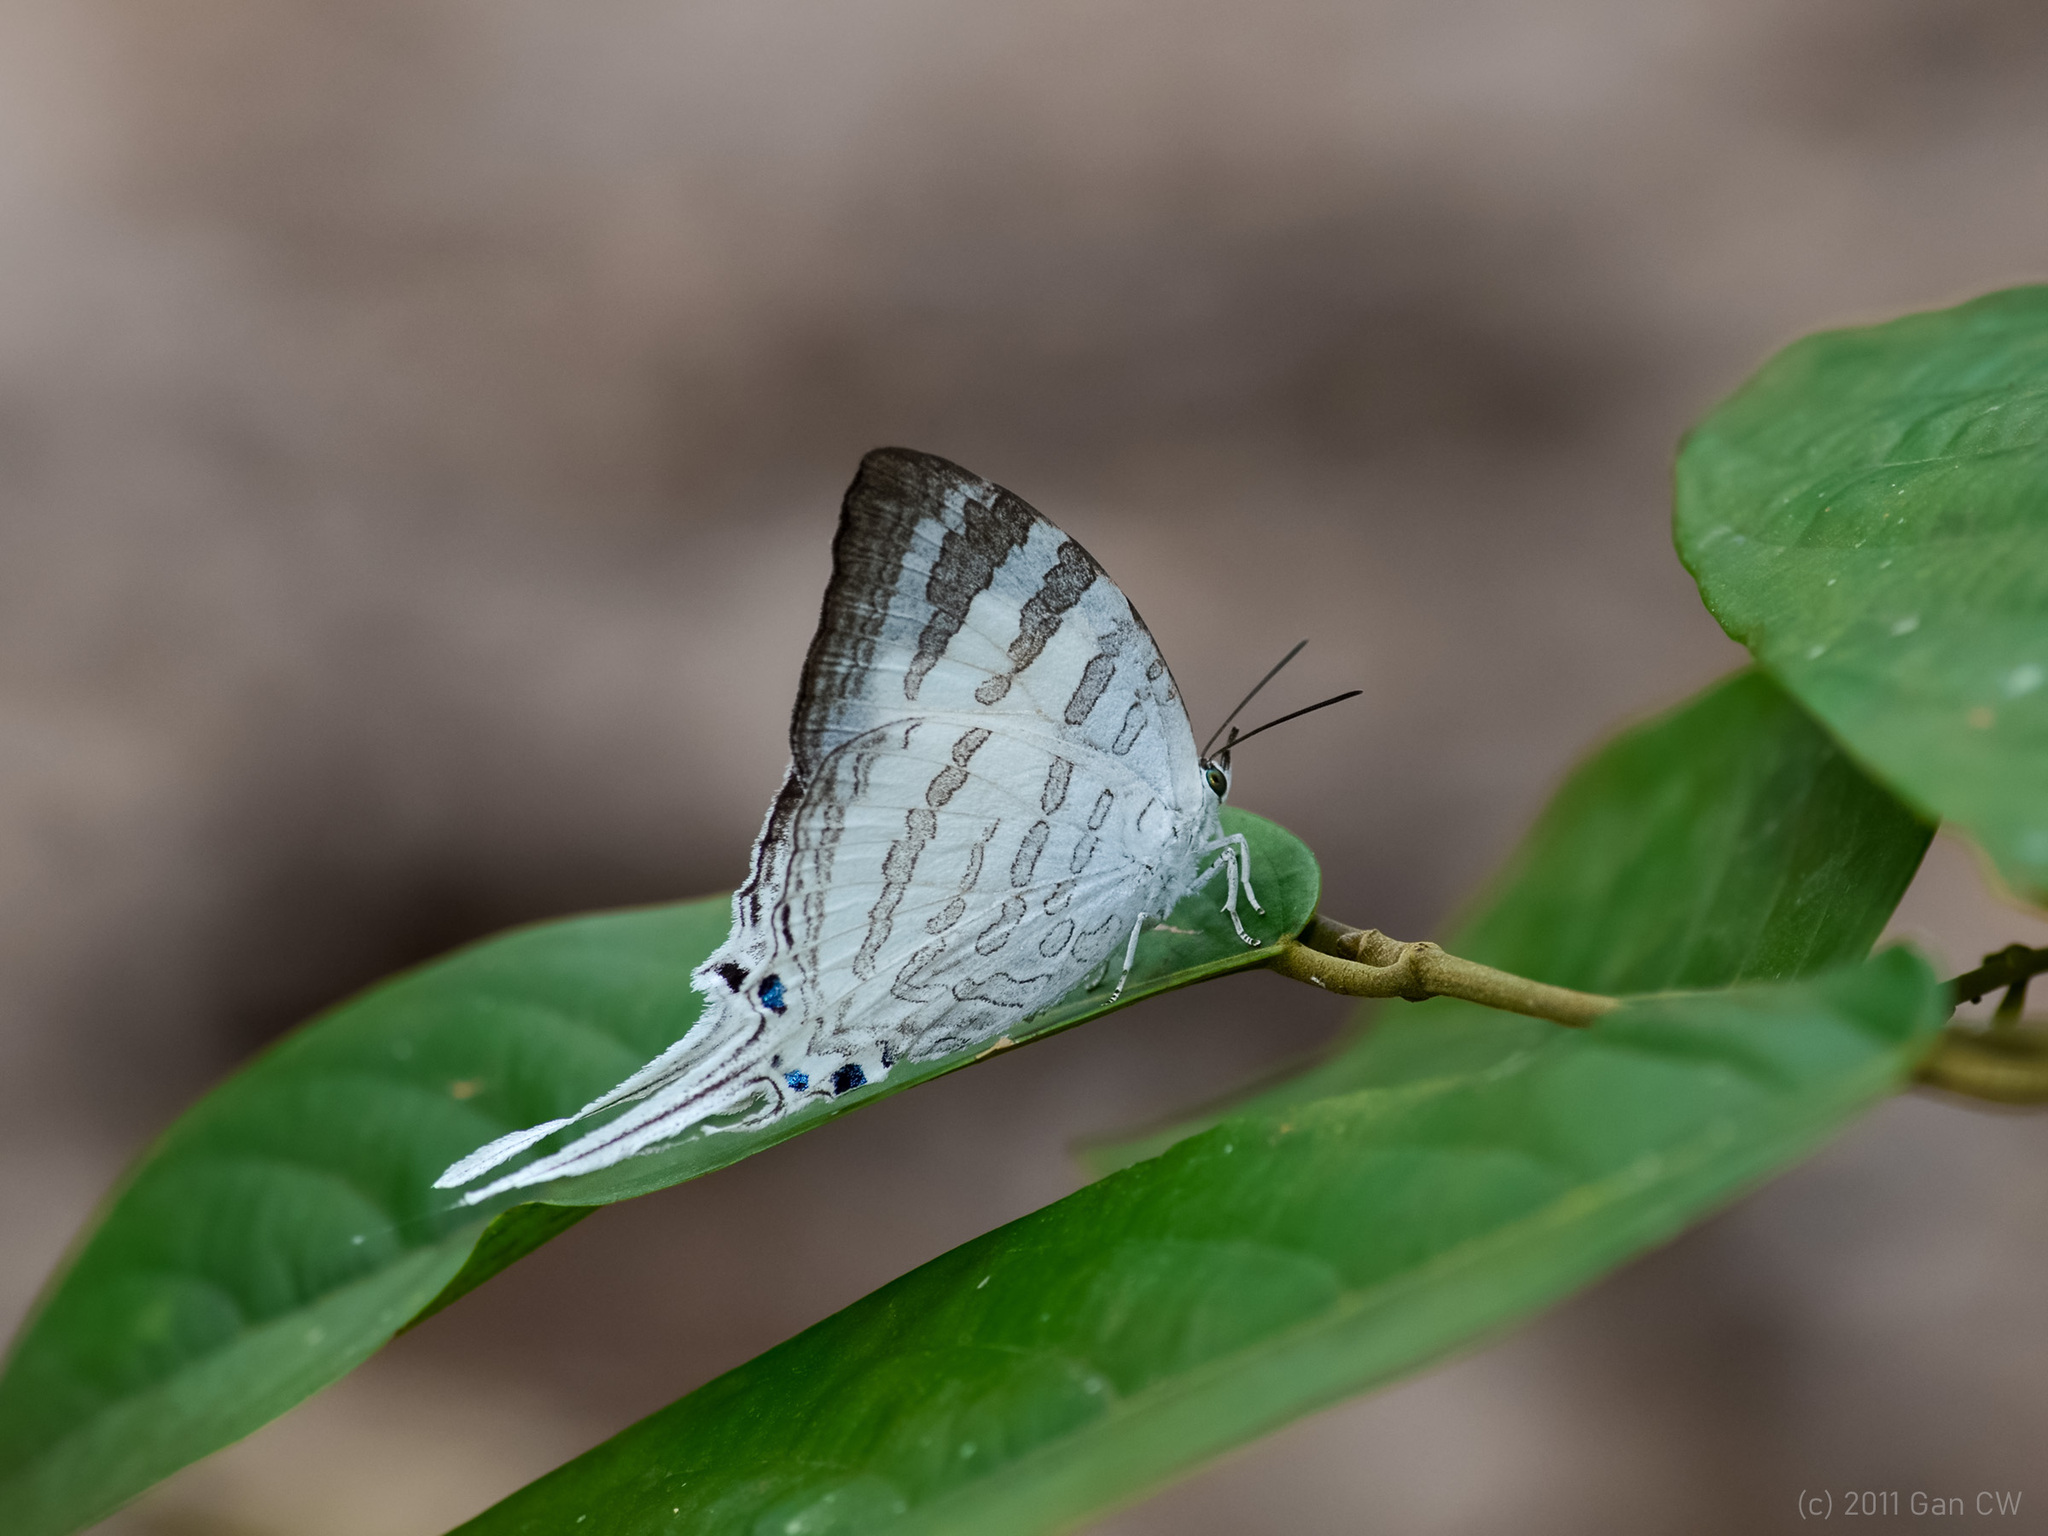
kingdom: Animalia
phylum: Arthropoda
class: Insecta
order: Lepidoptera
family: Lycaenidae
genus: Neomyrina
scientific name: Neomyrina nivea
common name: White imperial butterfly
